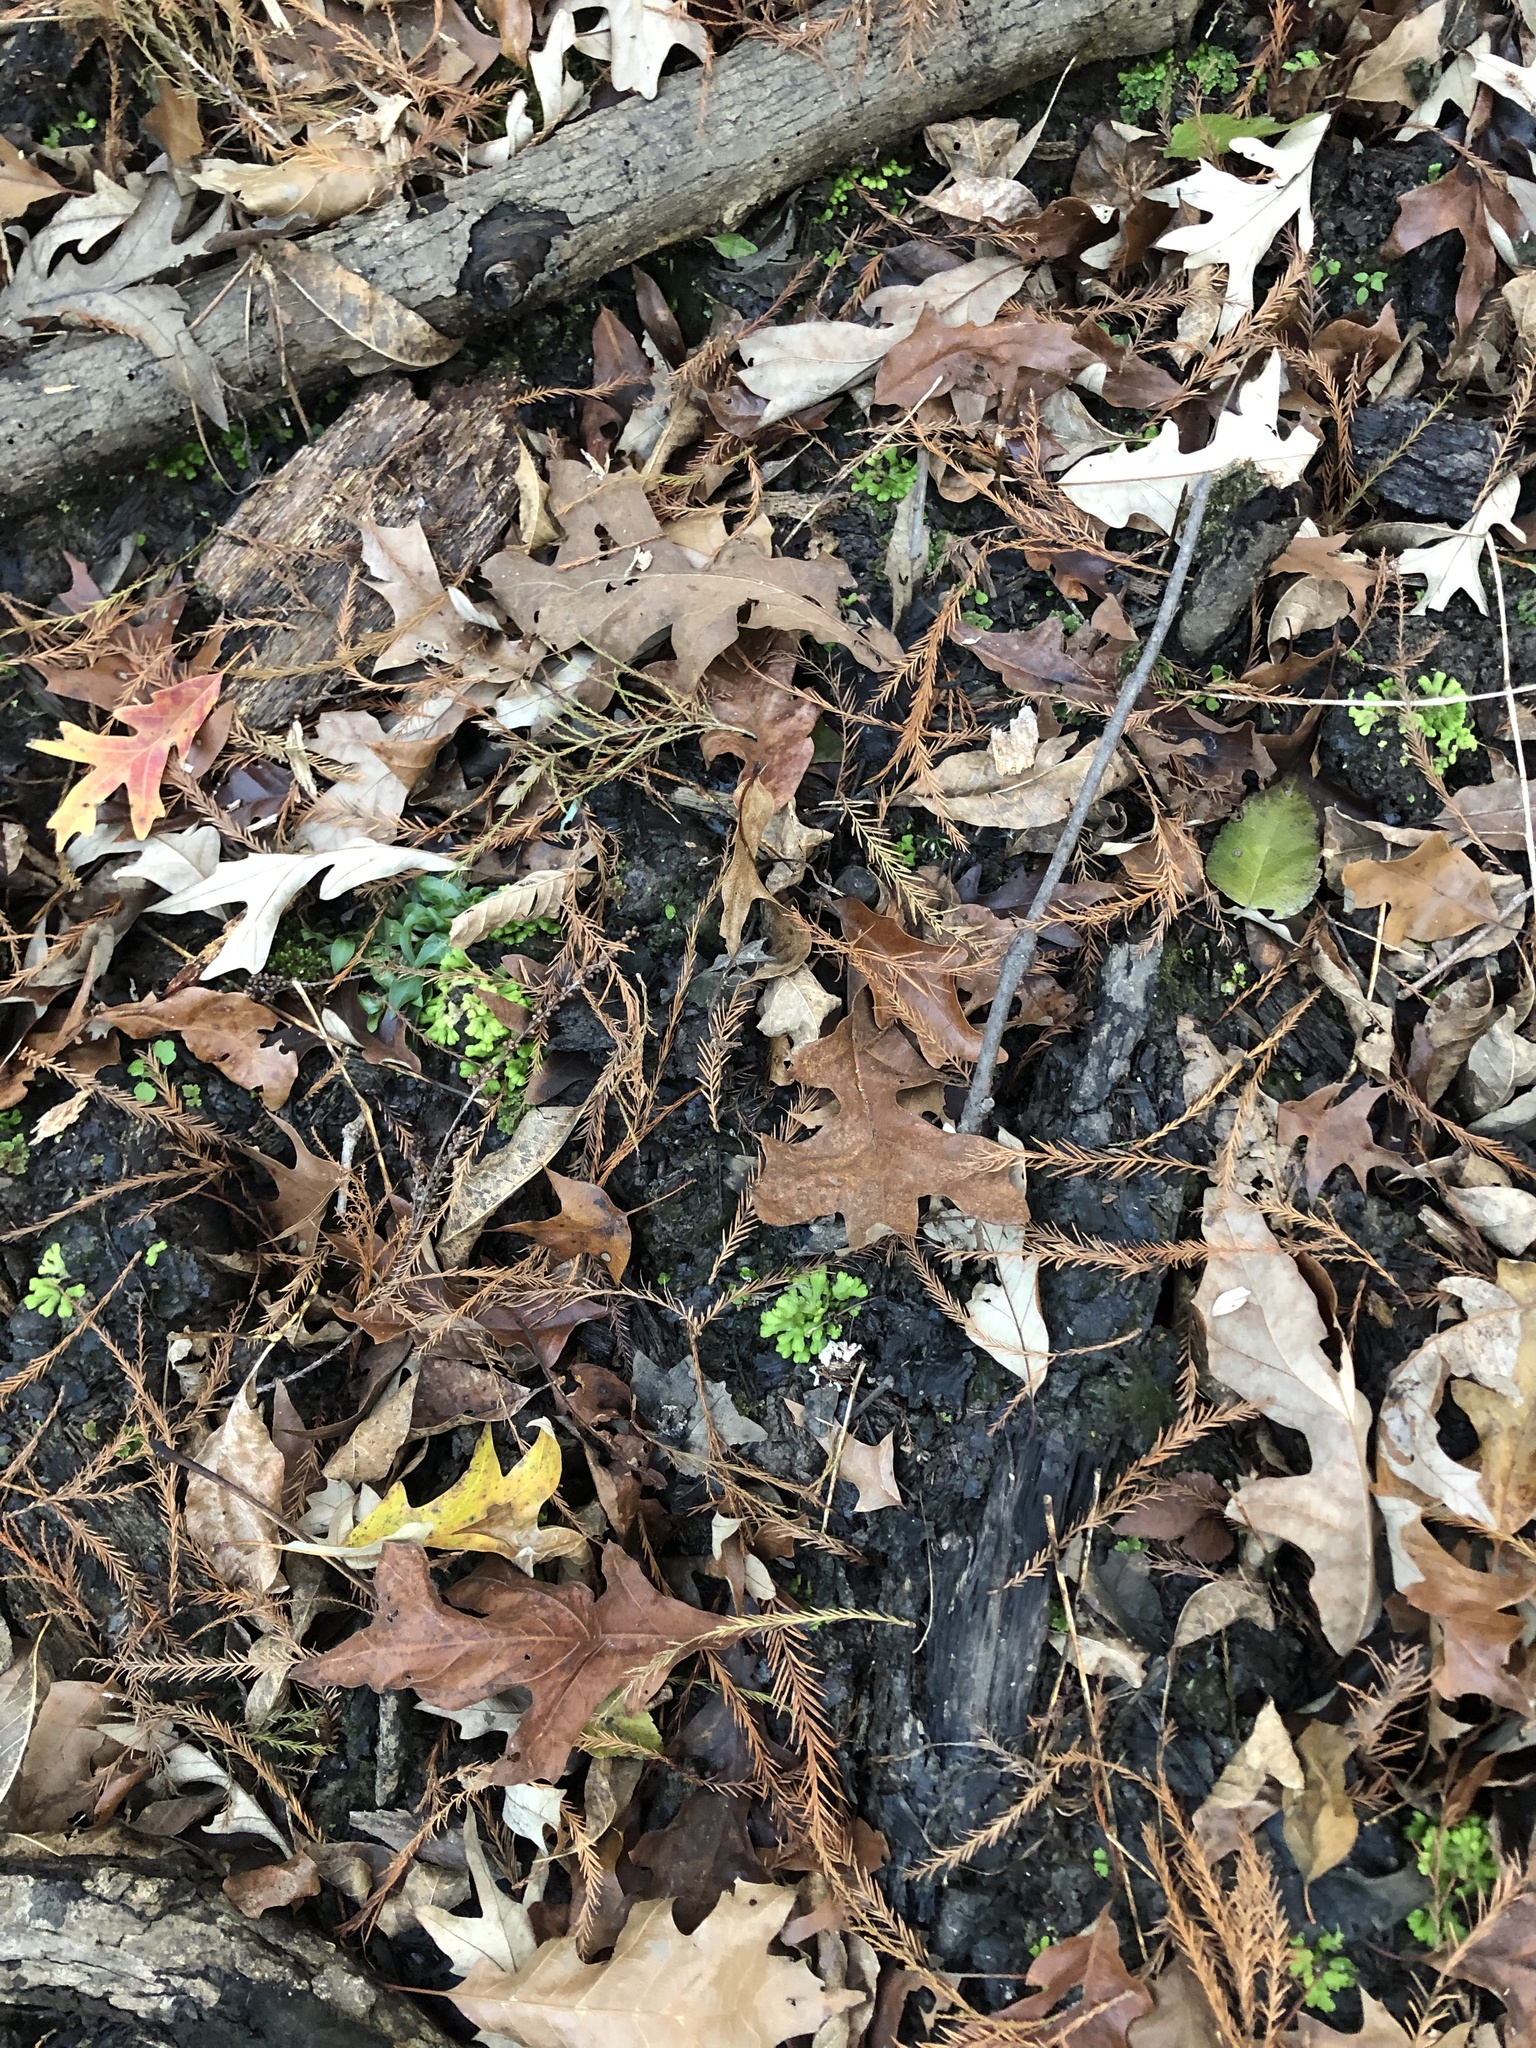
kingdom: Plantae
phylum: Marchantiophyta
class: Marchantiopsida
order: Marchantiales
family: Ricciaceae
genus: Ricciocarpos
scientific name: Ricciocarpos natans
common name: Purple-fringed liverwort
